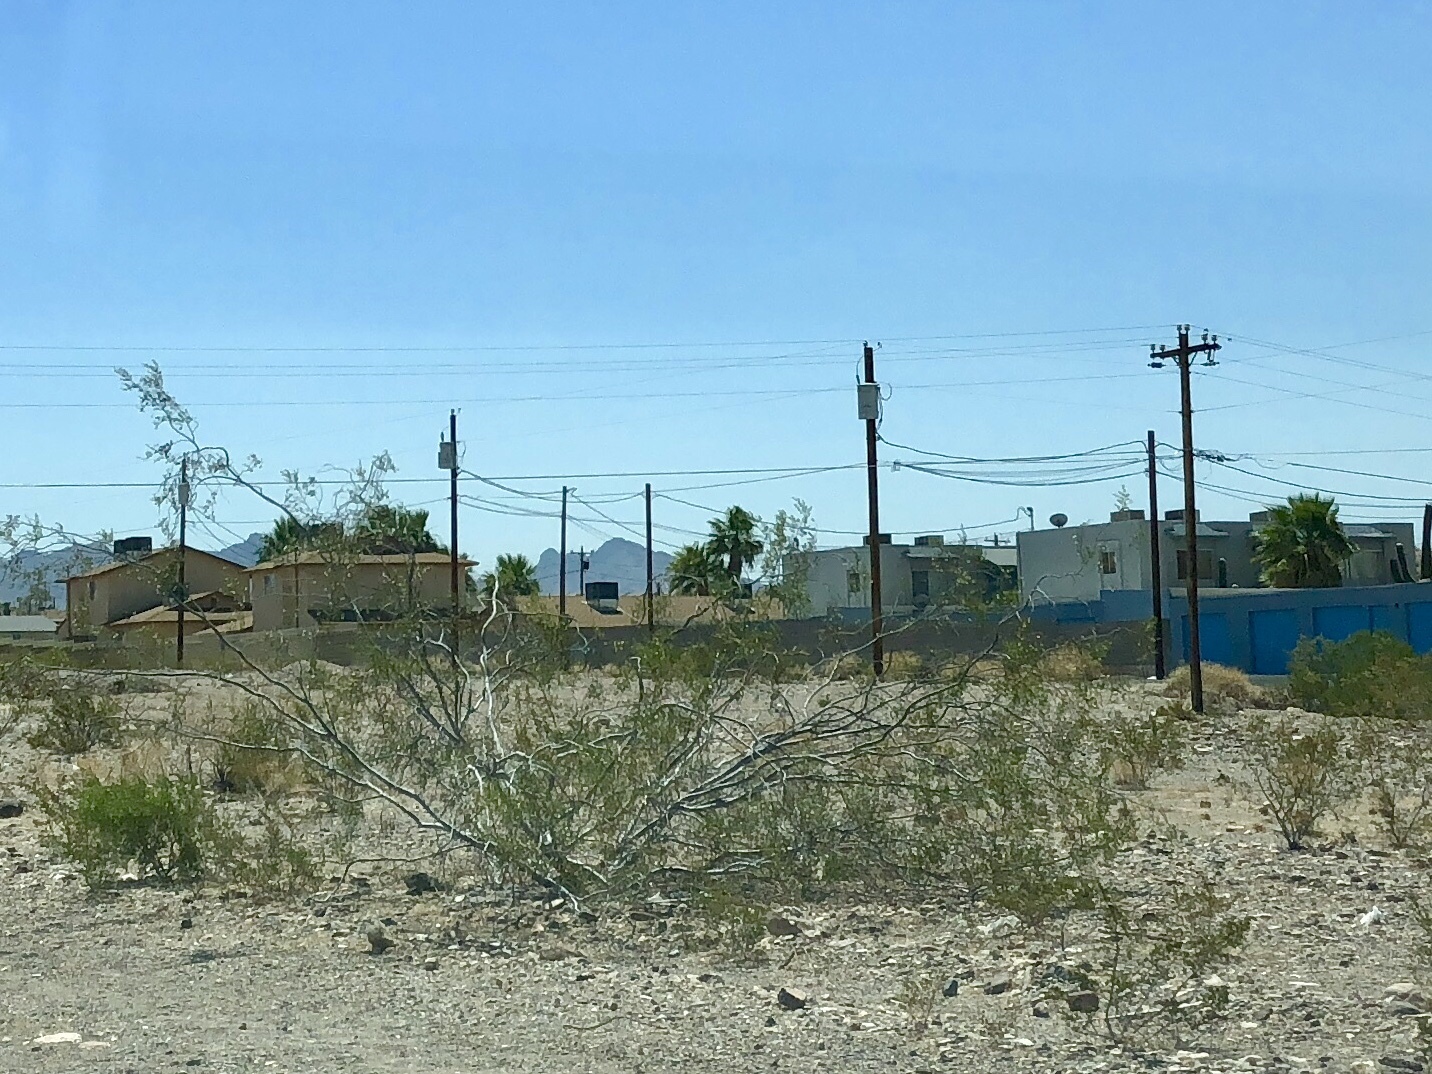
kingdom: Plantae
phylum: Tracheophyta
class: Magnoliopsida
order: Zygophyllales
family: Zygophyllaceae
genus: Larrea
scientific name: Larrea tridentata
